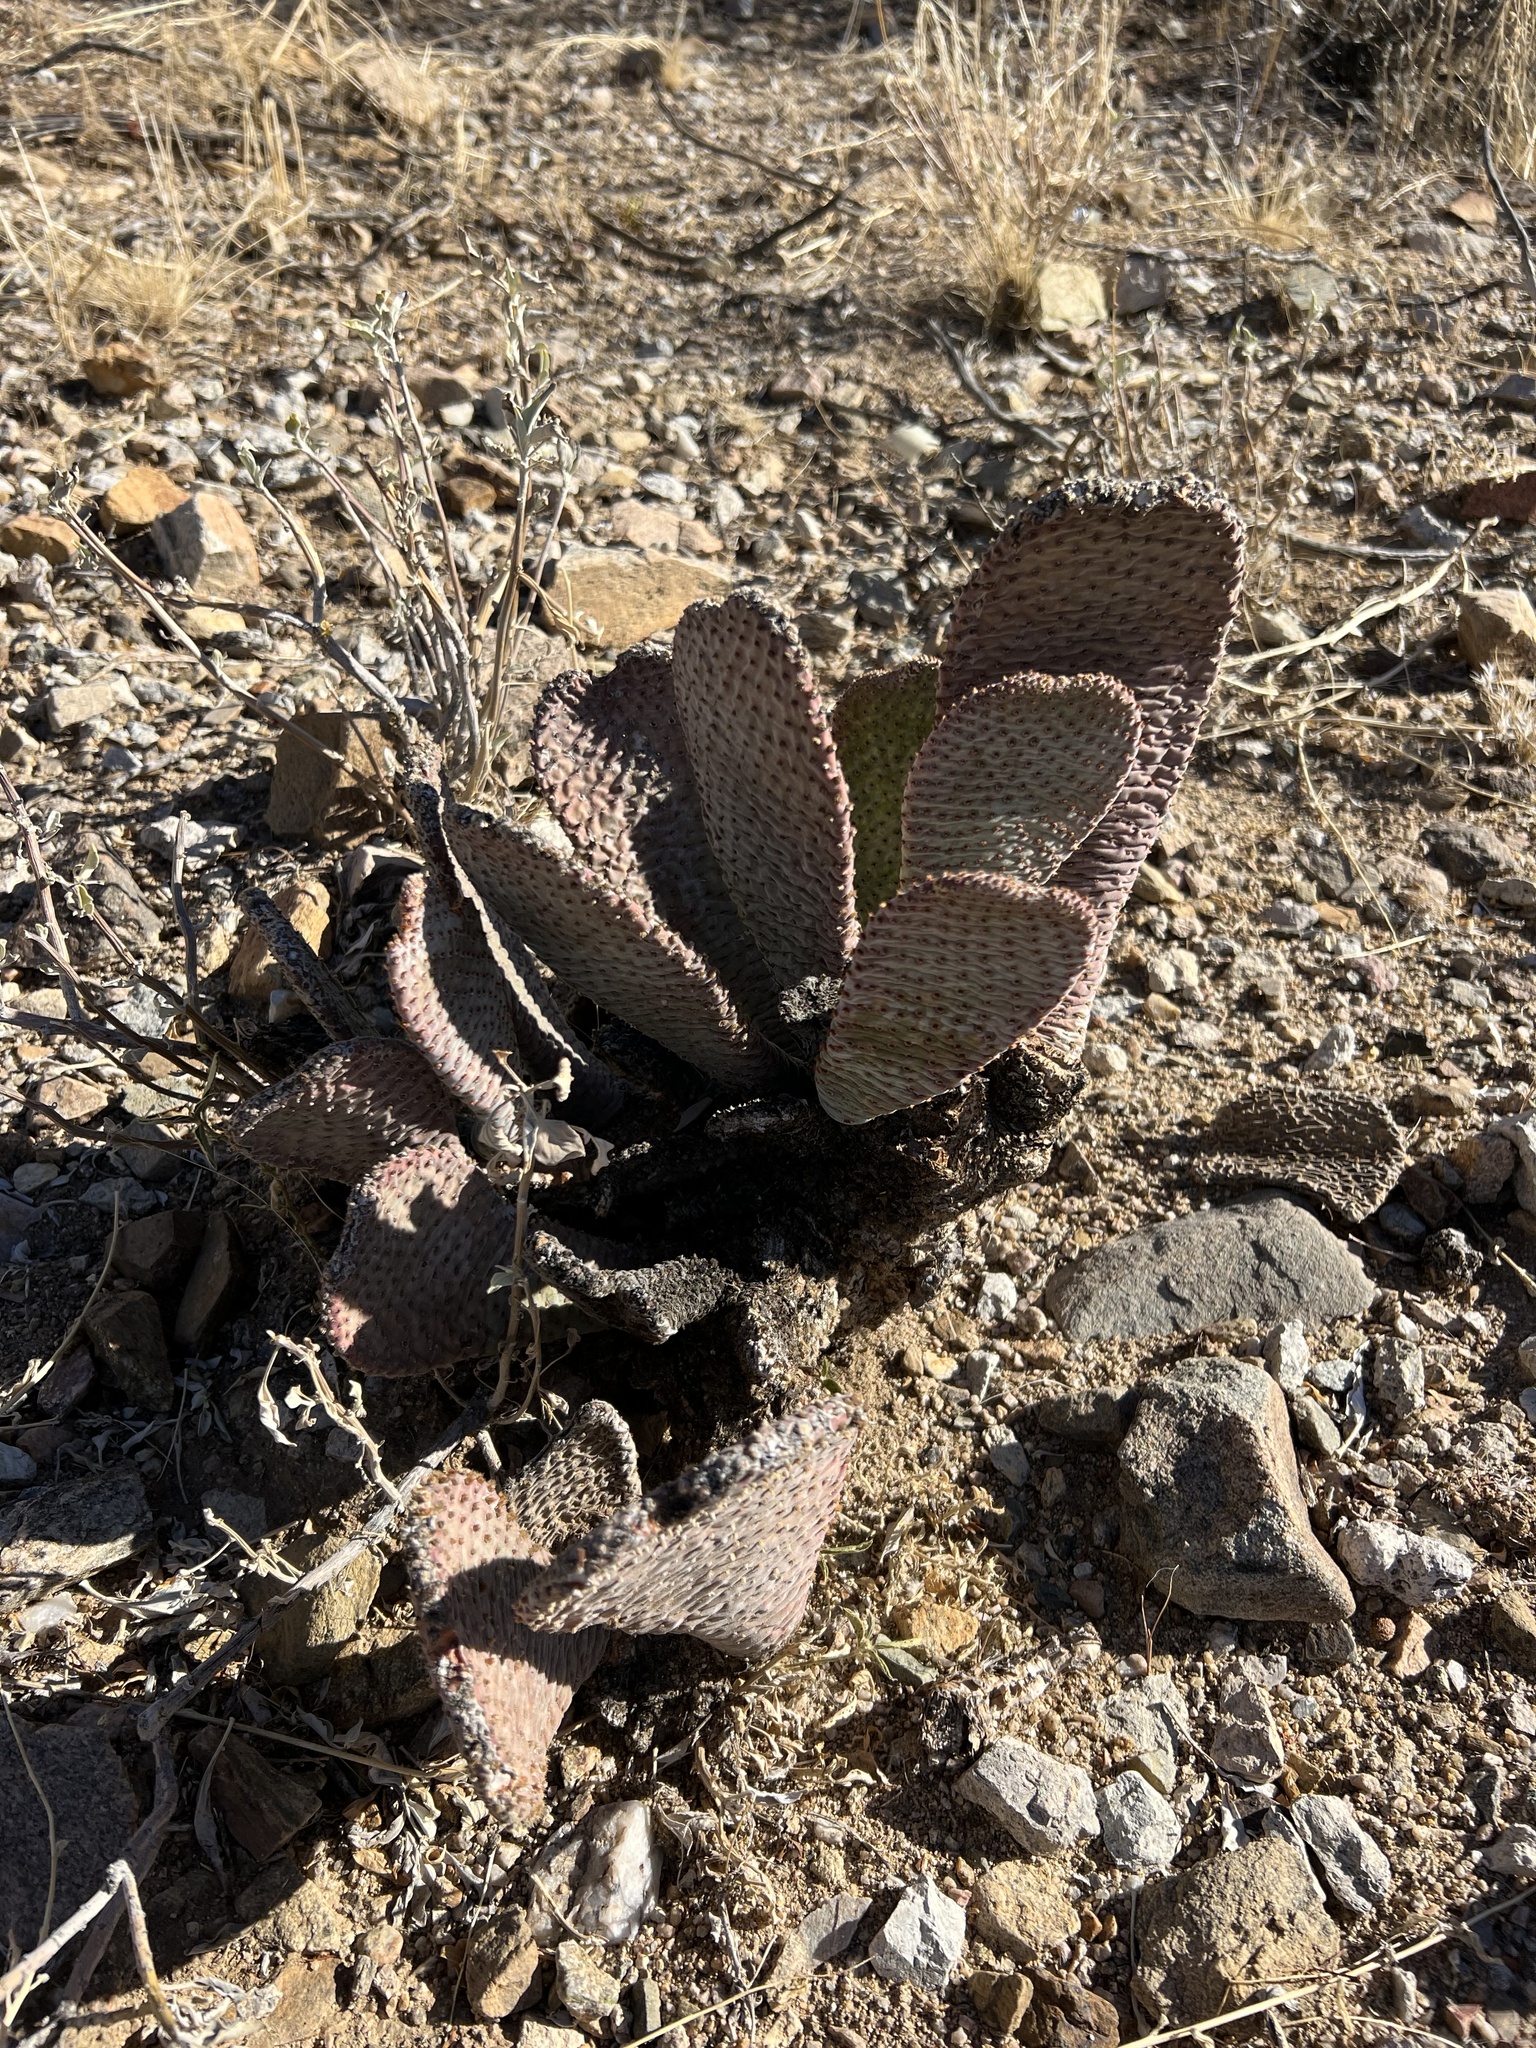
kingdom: Plantae
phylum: Tracheophyta
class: Magnoliopsida
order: Caryophyllales
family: Cactaceae
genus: Opuntia
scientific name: Opuntia basilaris
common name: Beavertail prickly-pear
